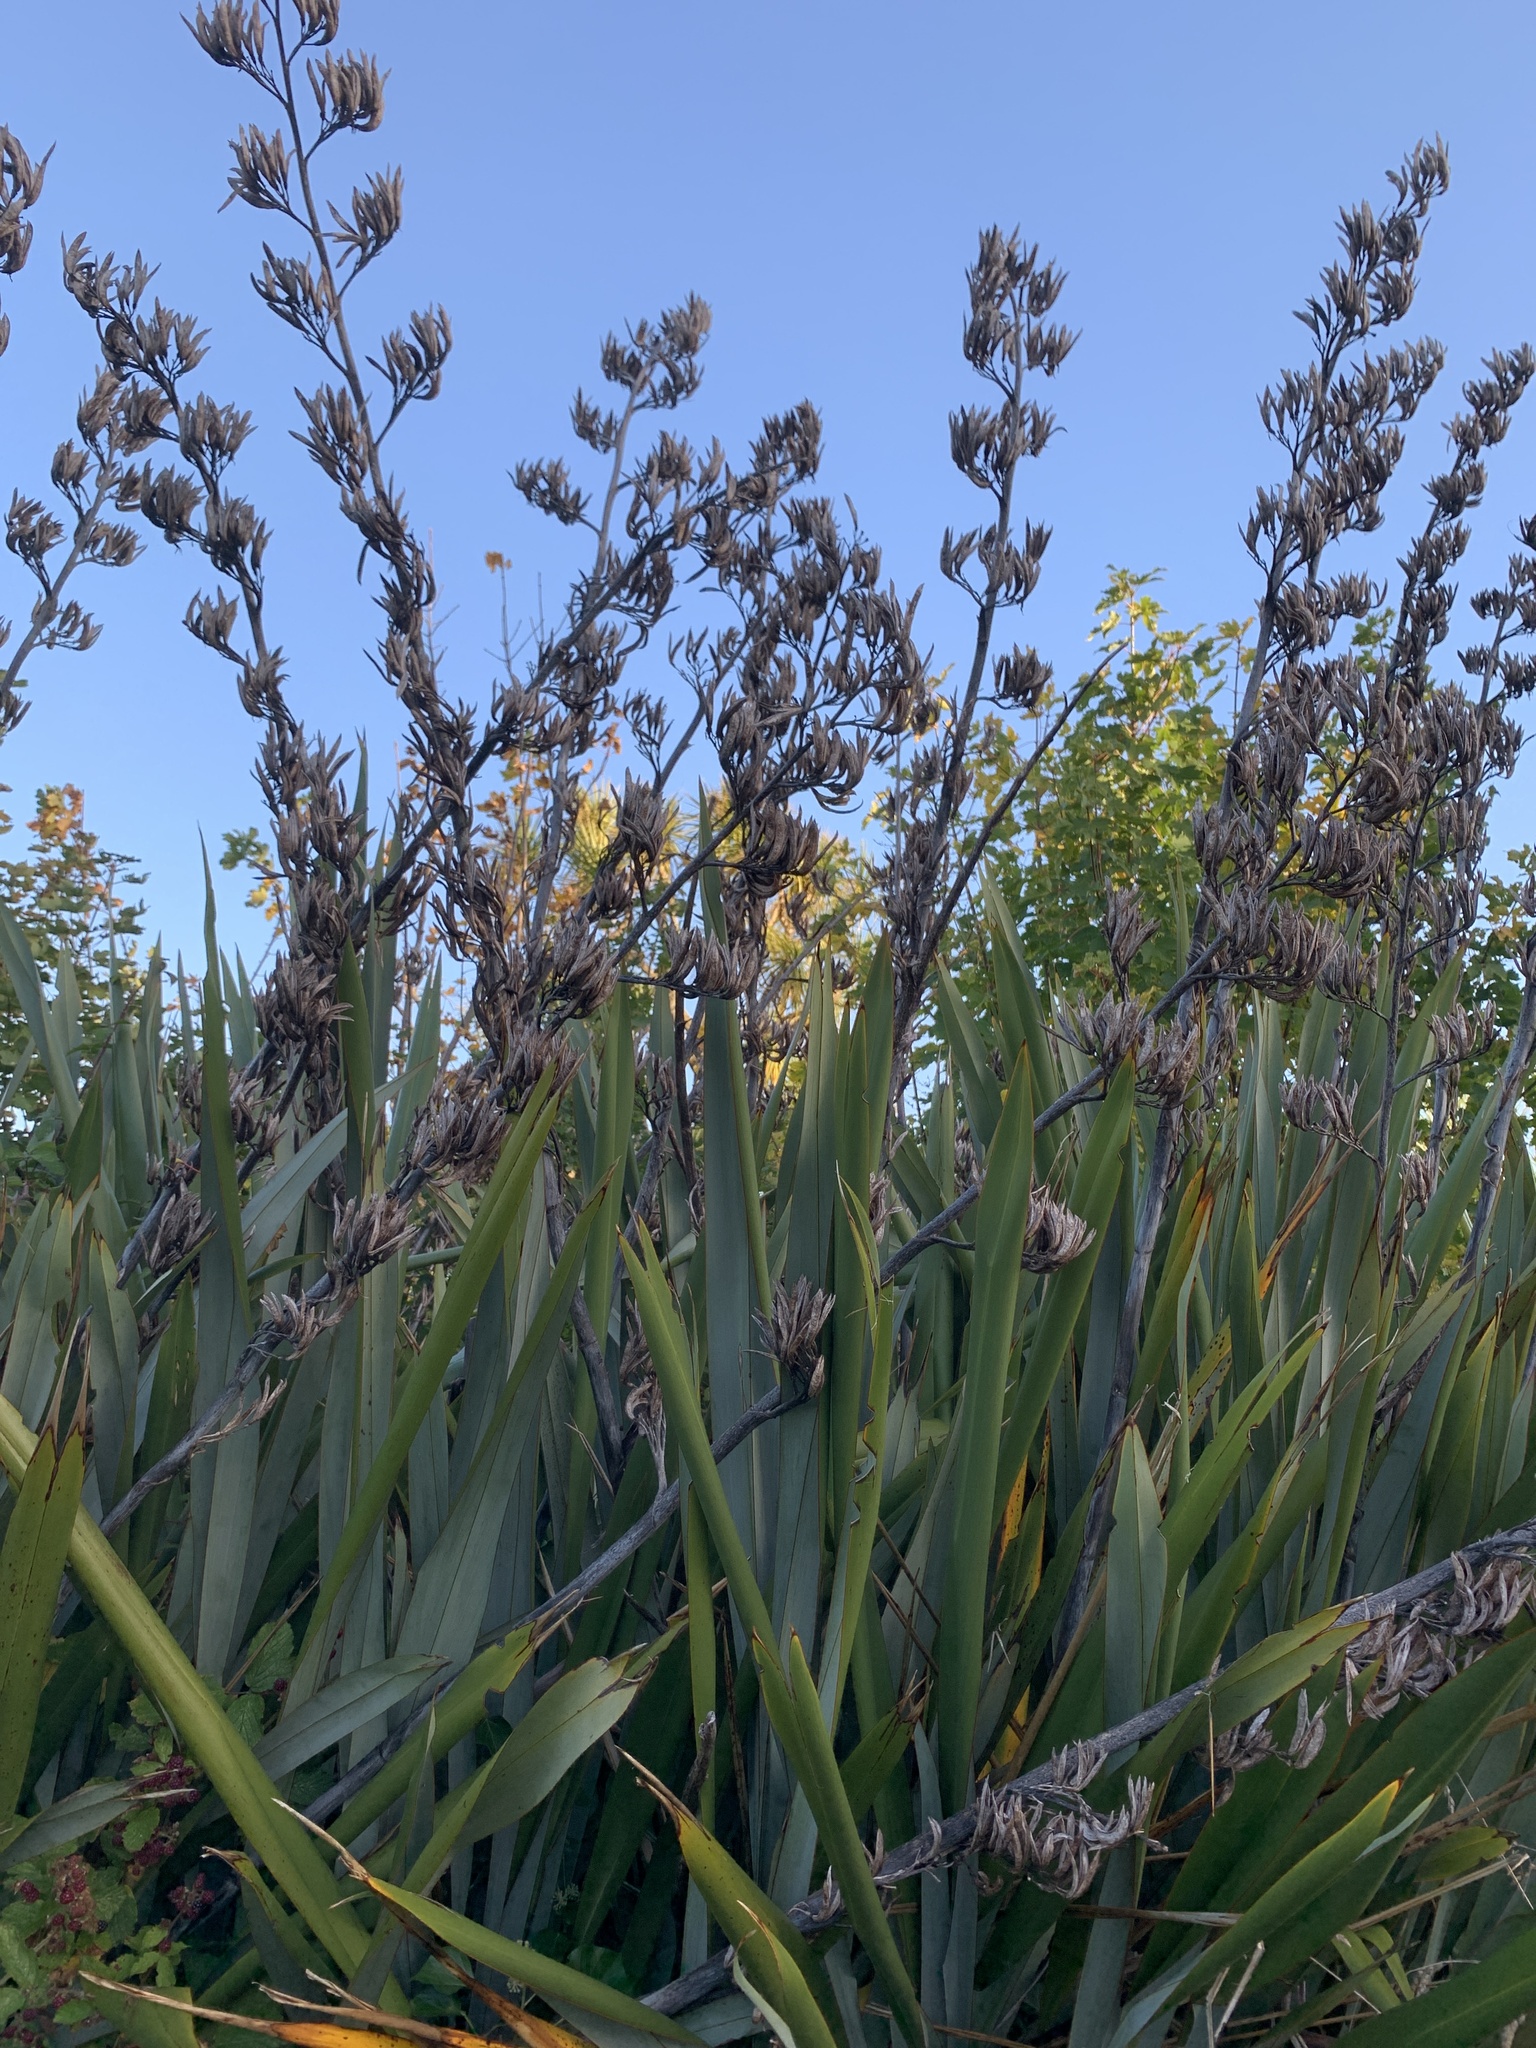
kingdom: Plantae
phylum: Tracheophyta
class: Liliopsida
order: Asparagales
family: Asphodelaceae
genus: Phormium
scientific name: Phormium tenax
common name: New zealand flax
